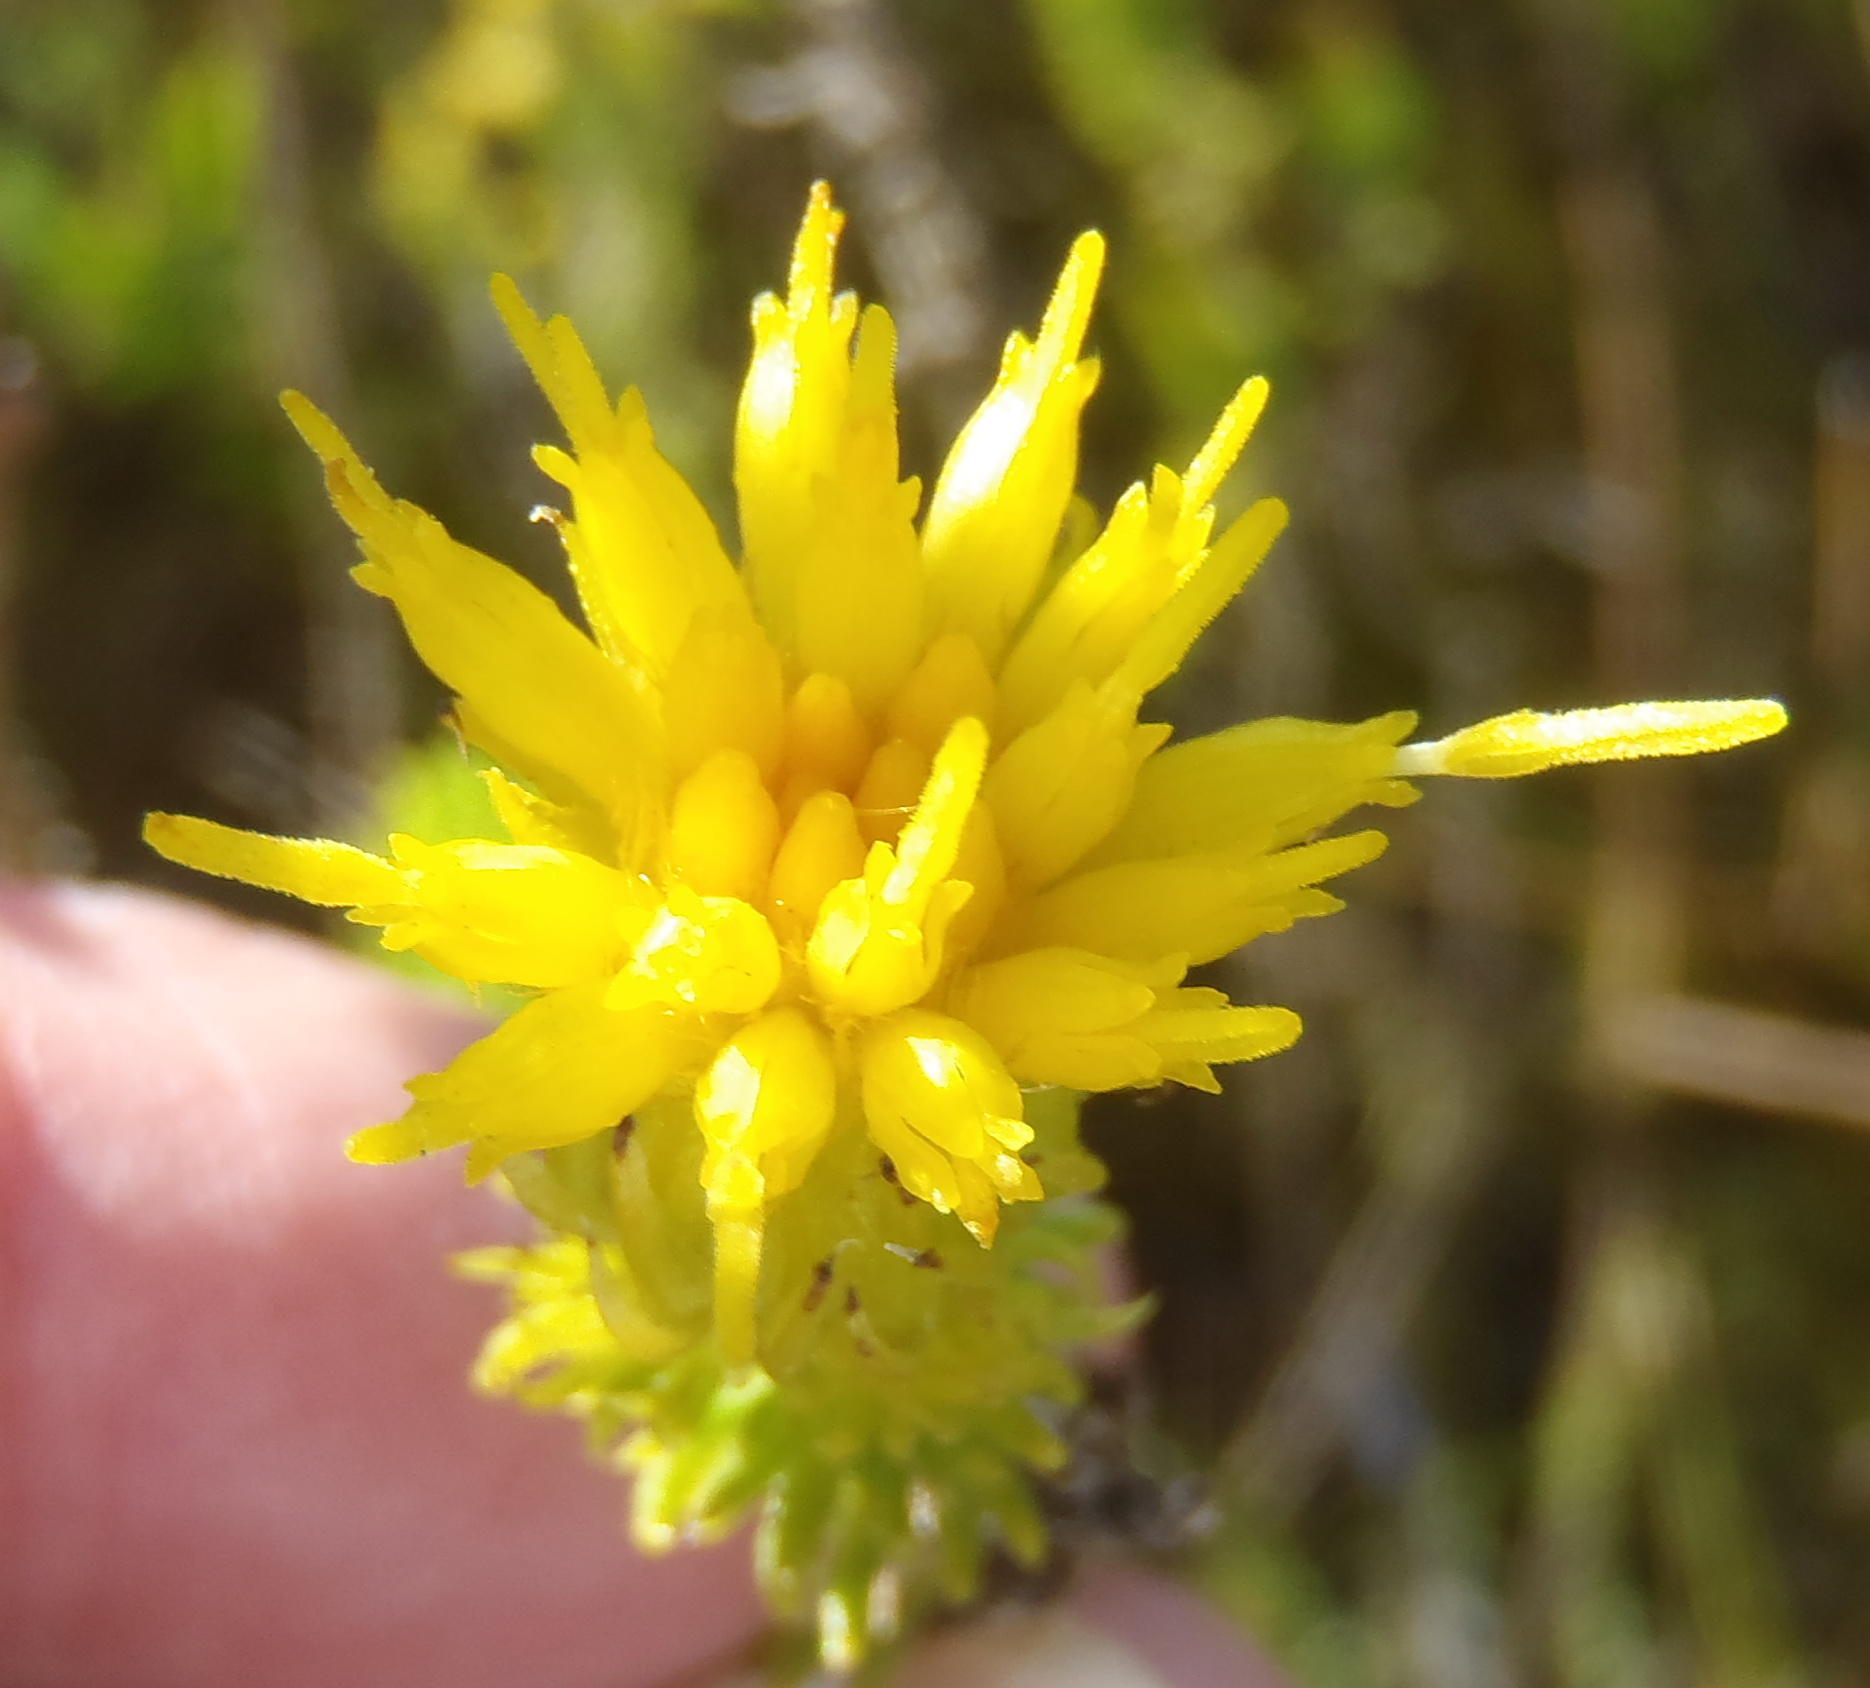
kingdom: Plantae
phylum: Tracheophyta
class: Magnoliopsida
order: Asterales
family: Asteraceae
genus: Pteronia
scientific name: Pteronia camphorata
